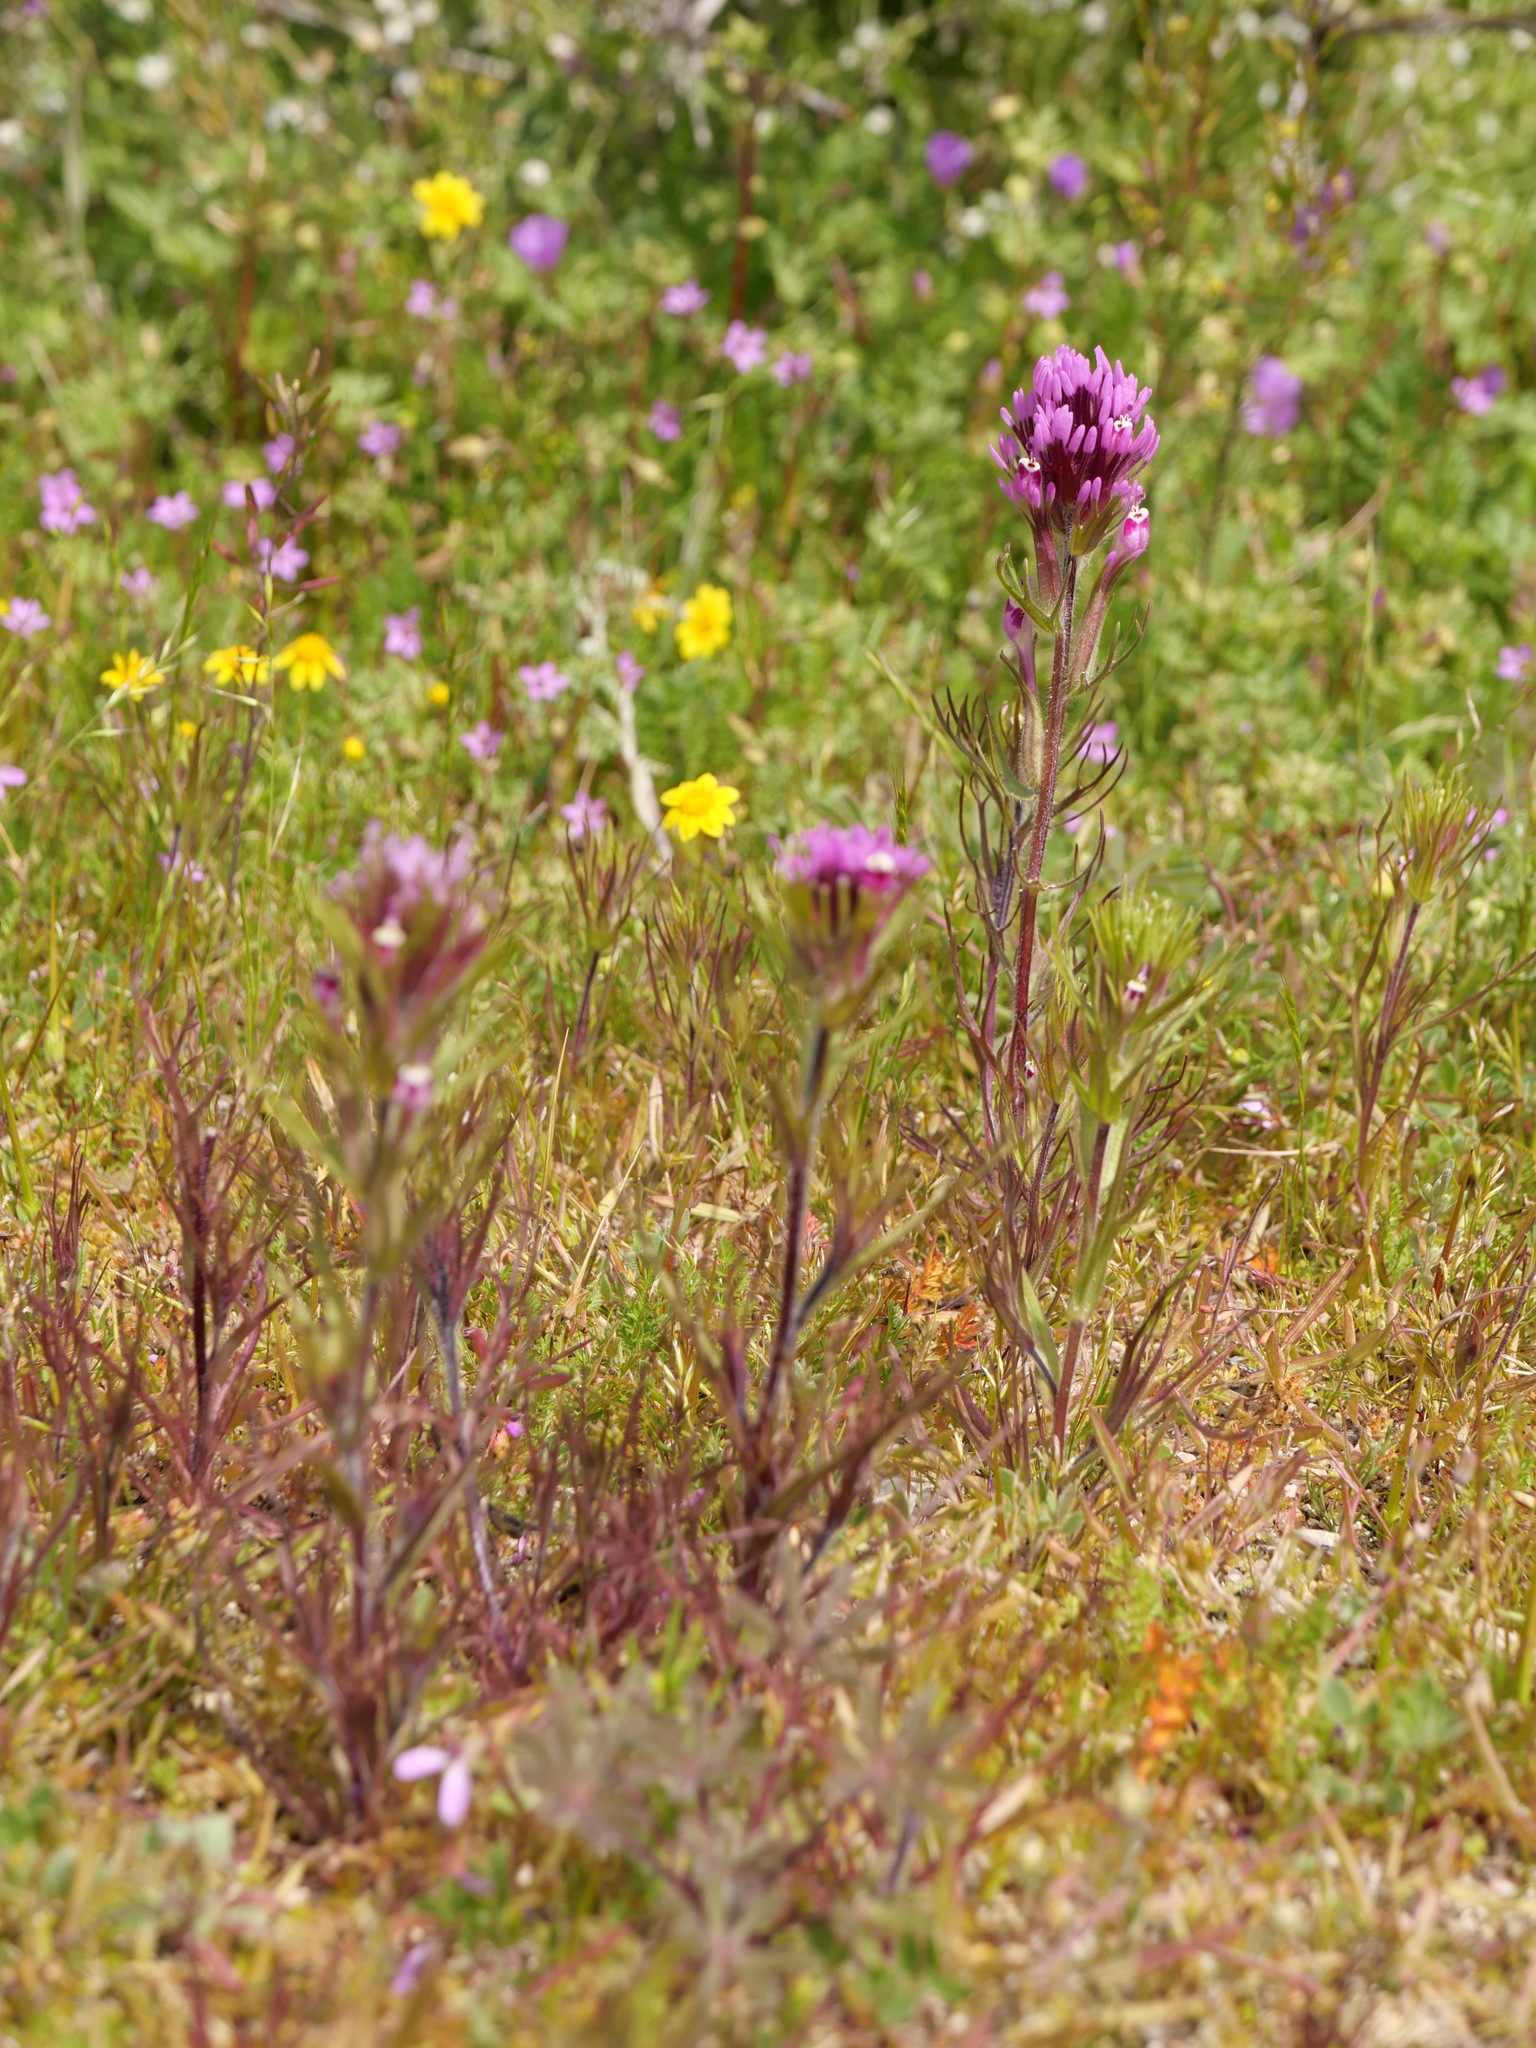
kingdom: Plantae
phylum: Tracheophyta
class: Magnoliopsida
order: Lamiales
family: Orobanchaceae
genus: Castilleja
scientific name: Castilleja exserta
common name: Purple owl-clover
